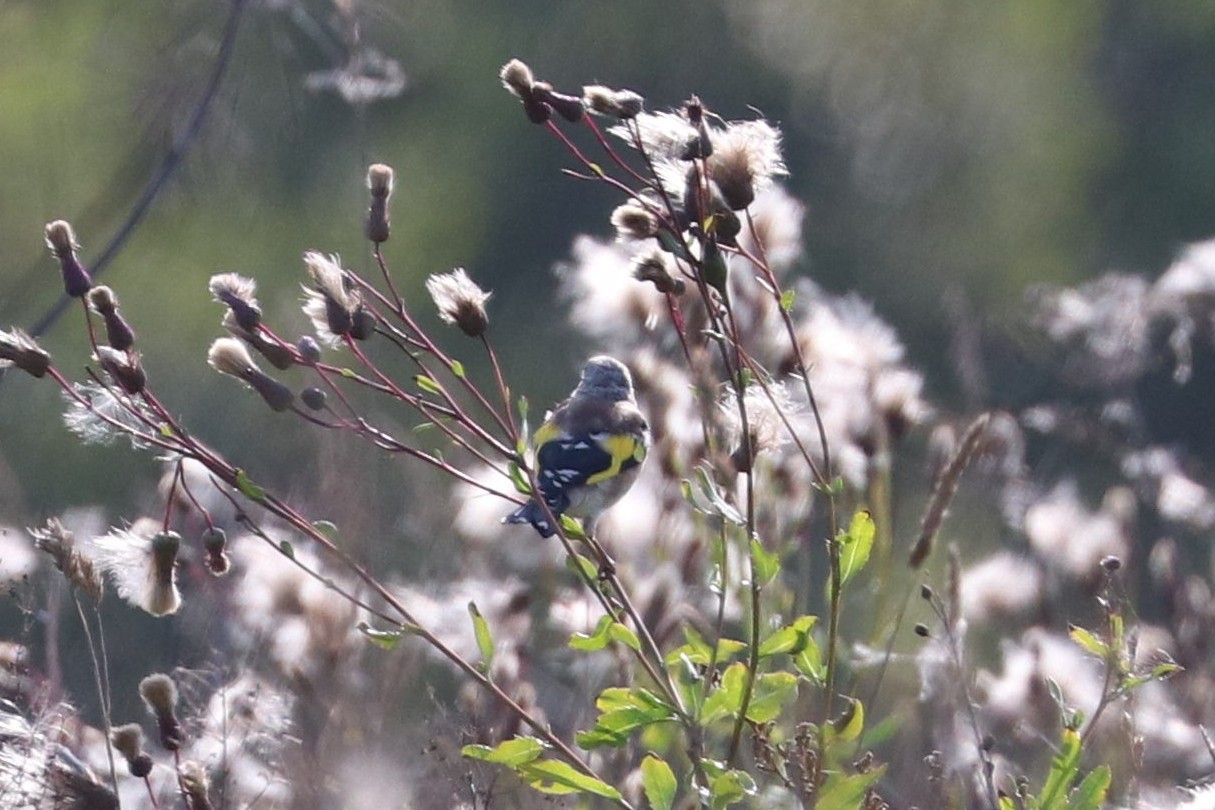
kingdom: Animalia
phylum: Chordata
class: Aves
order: Passeriformes
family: Fringillidae
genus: Carduelis
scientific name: Carduelis carduelis
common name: European goldfinch
